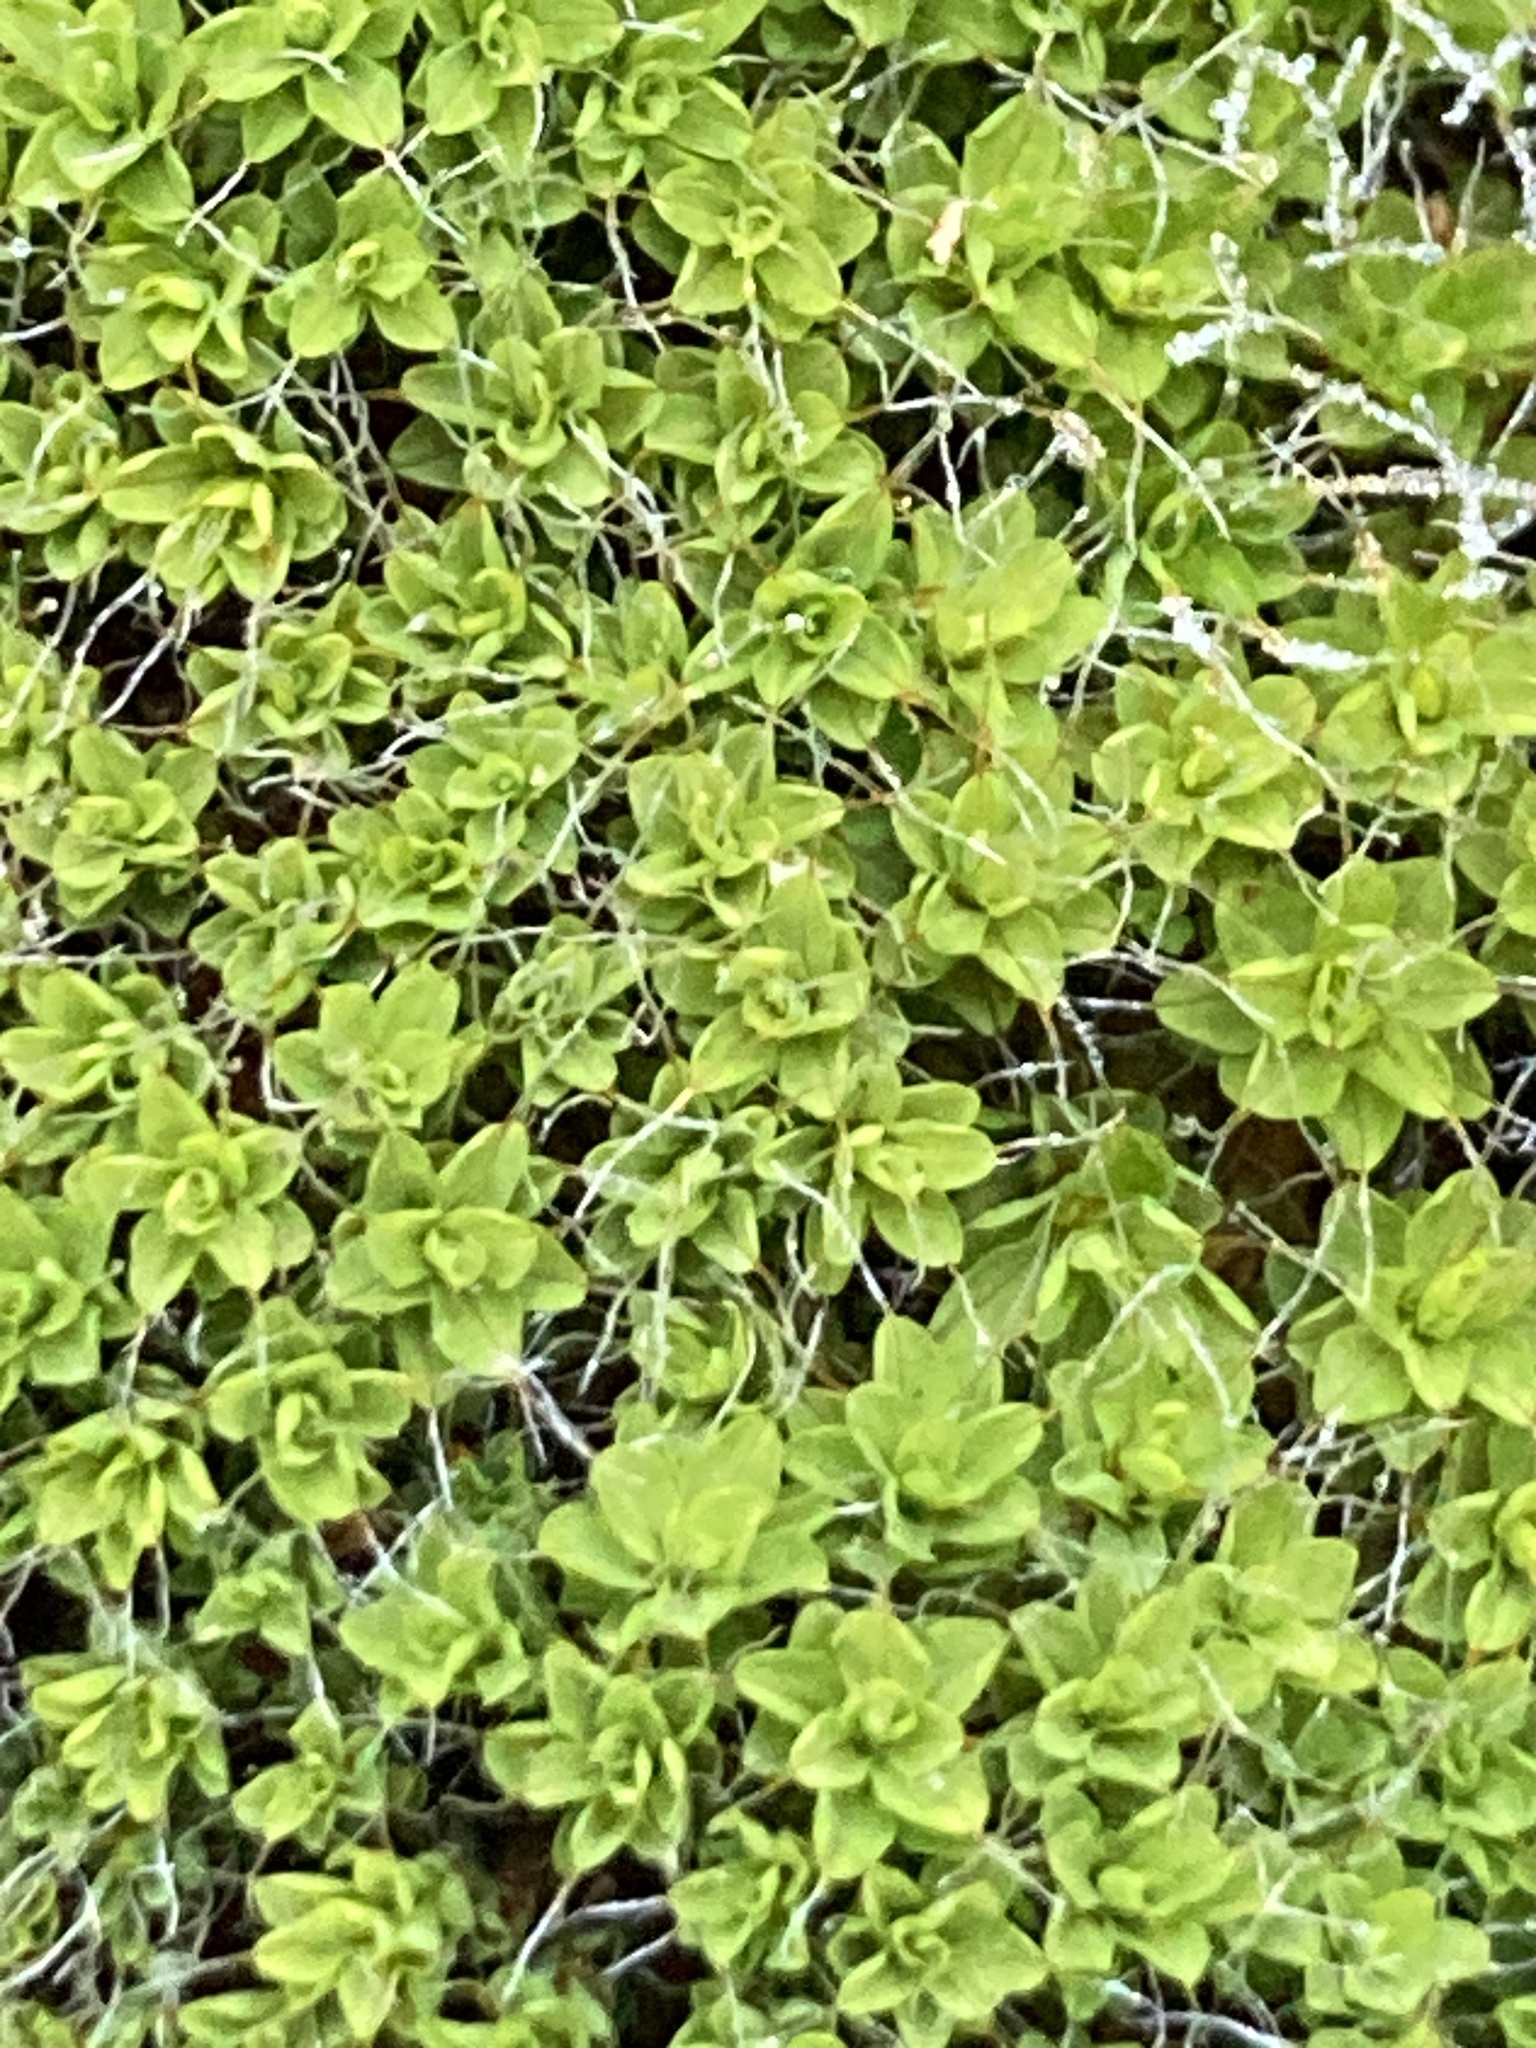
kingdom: Plantae
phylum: Bryophyta
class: Bryopsida
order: Pottiales
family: Pottiaceae
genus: Syntrichia
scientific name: Syntrichia ruralis
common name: Sidewalk screw moss
